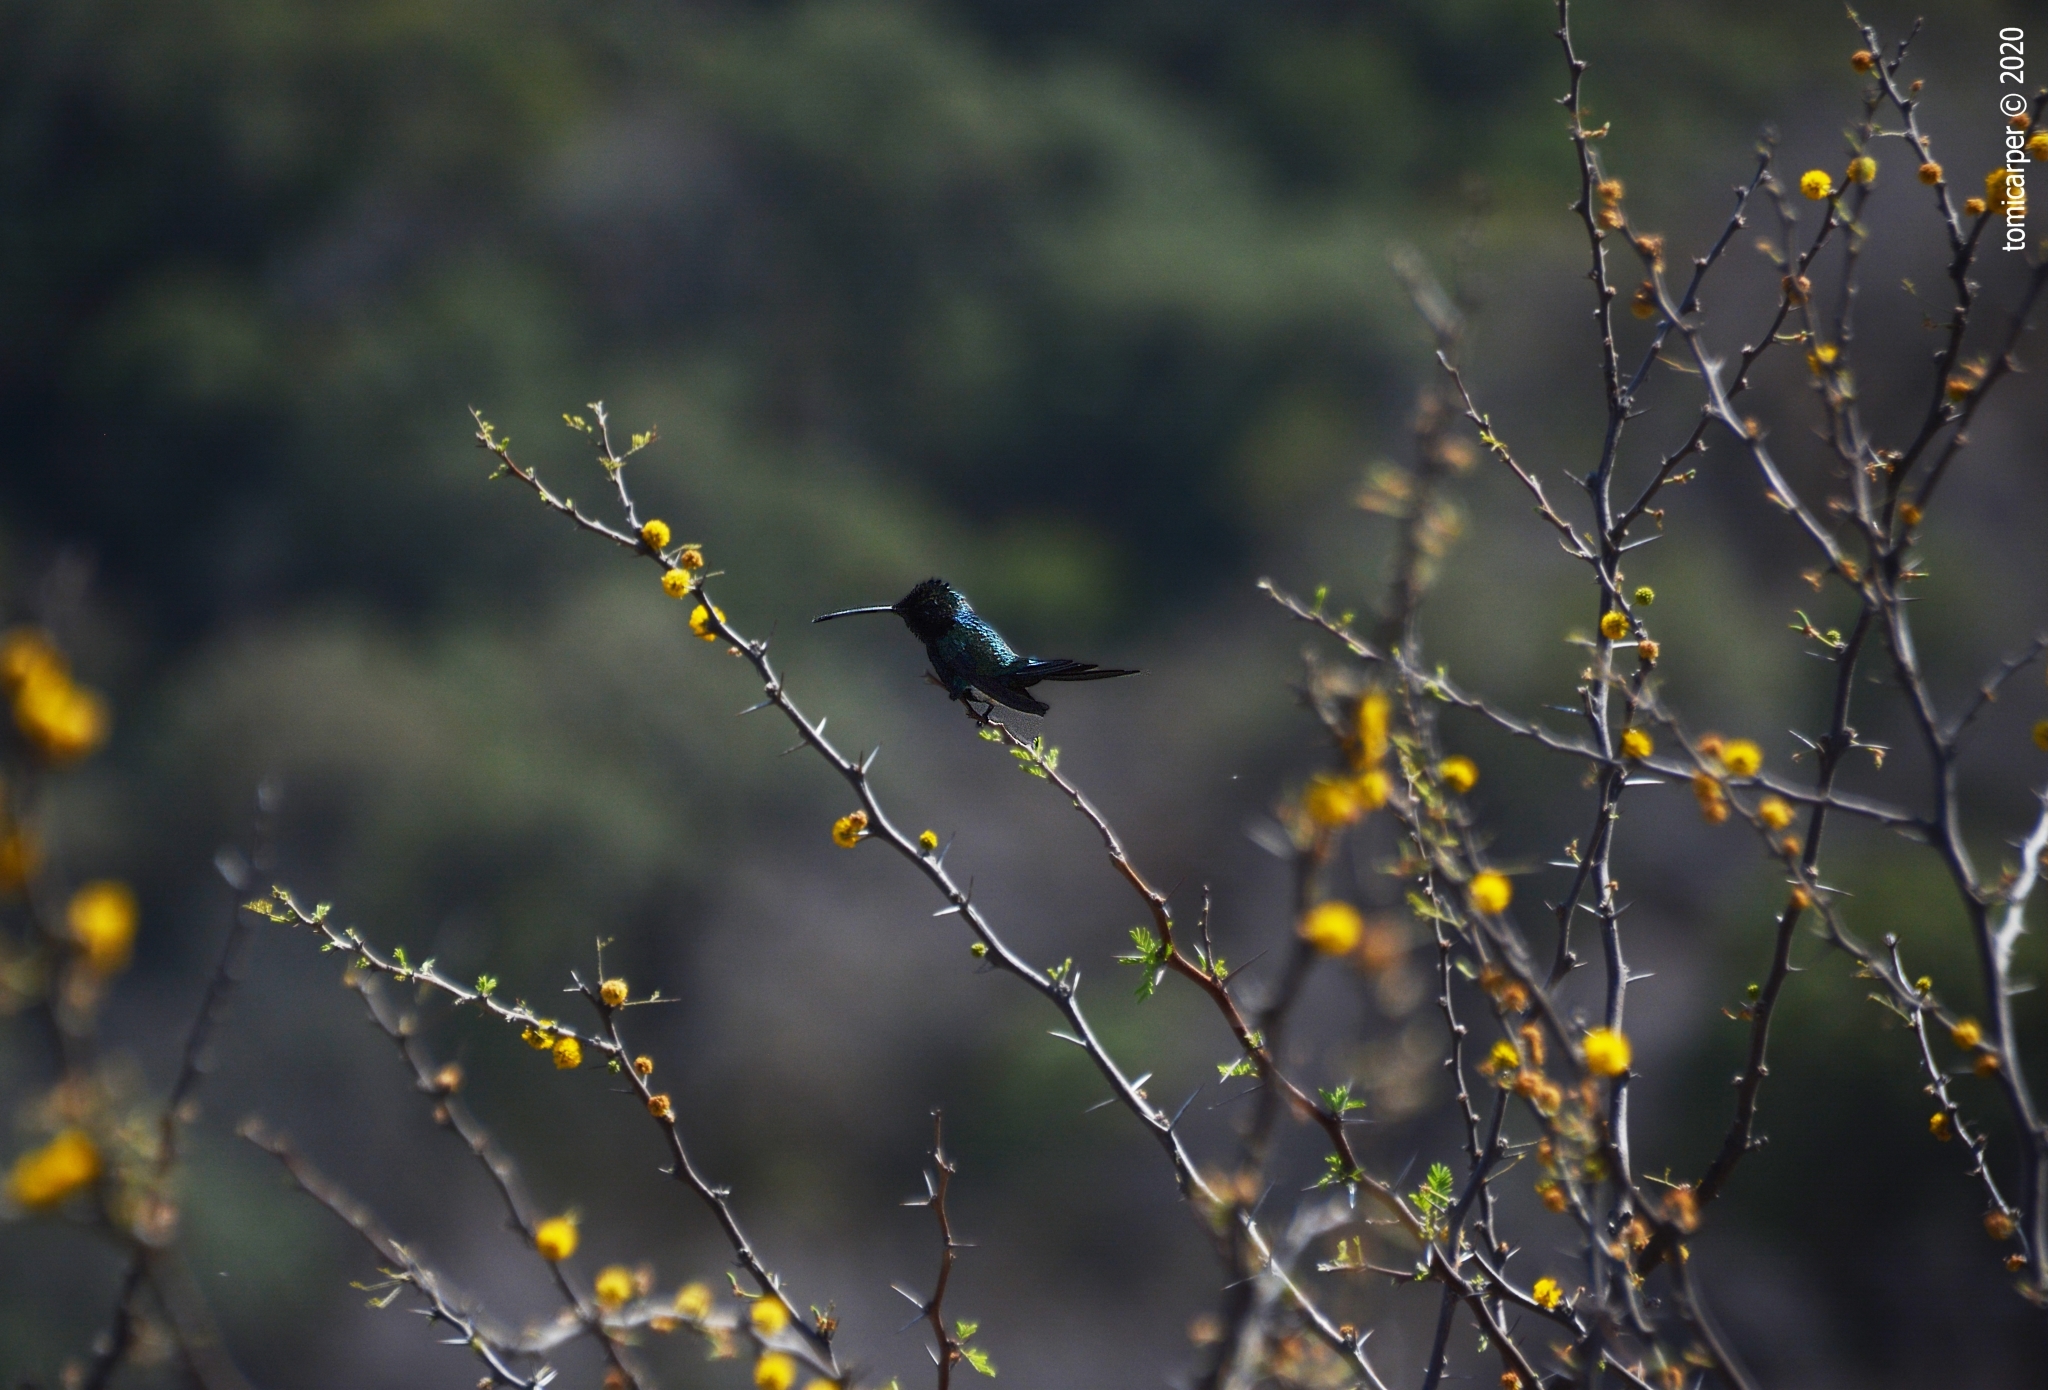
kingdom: Animalia
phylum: Chordata
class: Aves
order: Apodiformes
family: Trochilidae
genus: Heliomaster
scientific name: Heliomaster furcifer
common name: Blue-tufted starthroat
